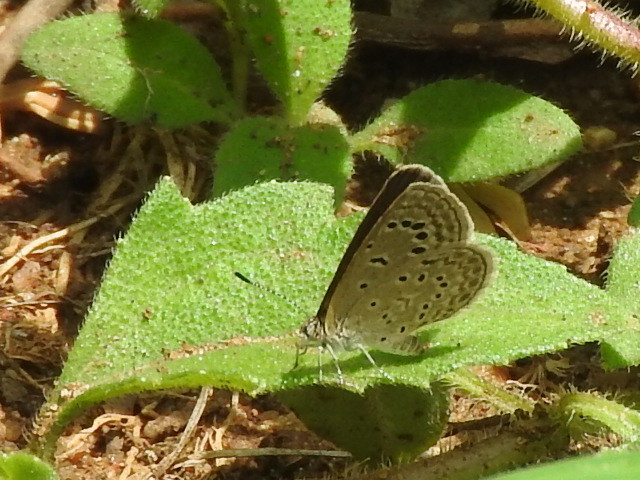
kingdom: Animalia
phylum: Arthropoda
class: Insecta
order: Lepidoptera
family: Lycaenidae
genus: Zizeeria
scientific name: Zizeeria karsandra
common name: Dark grass blue
